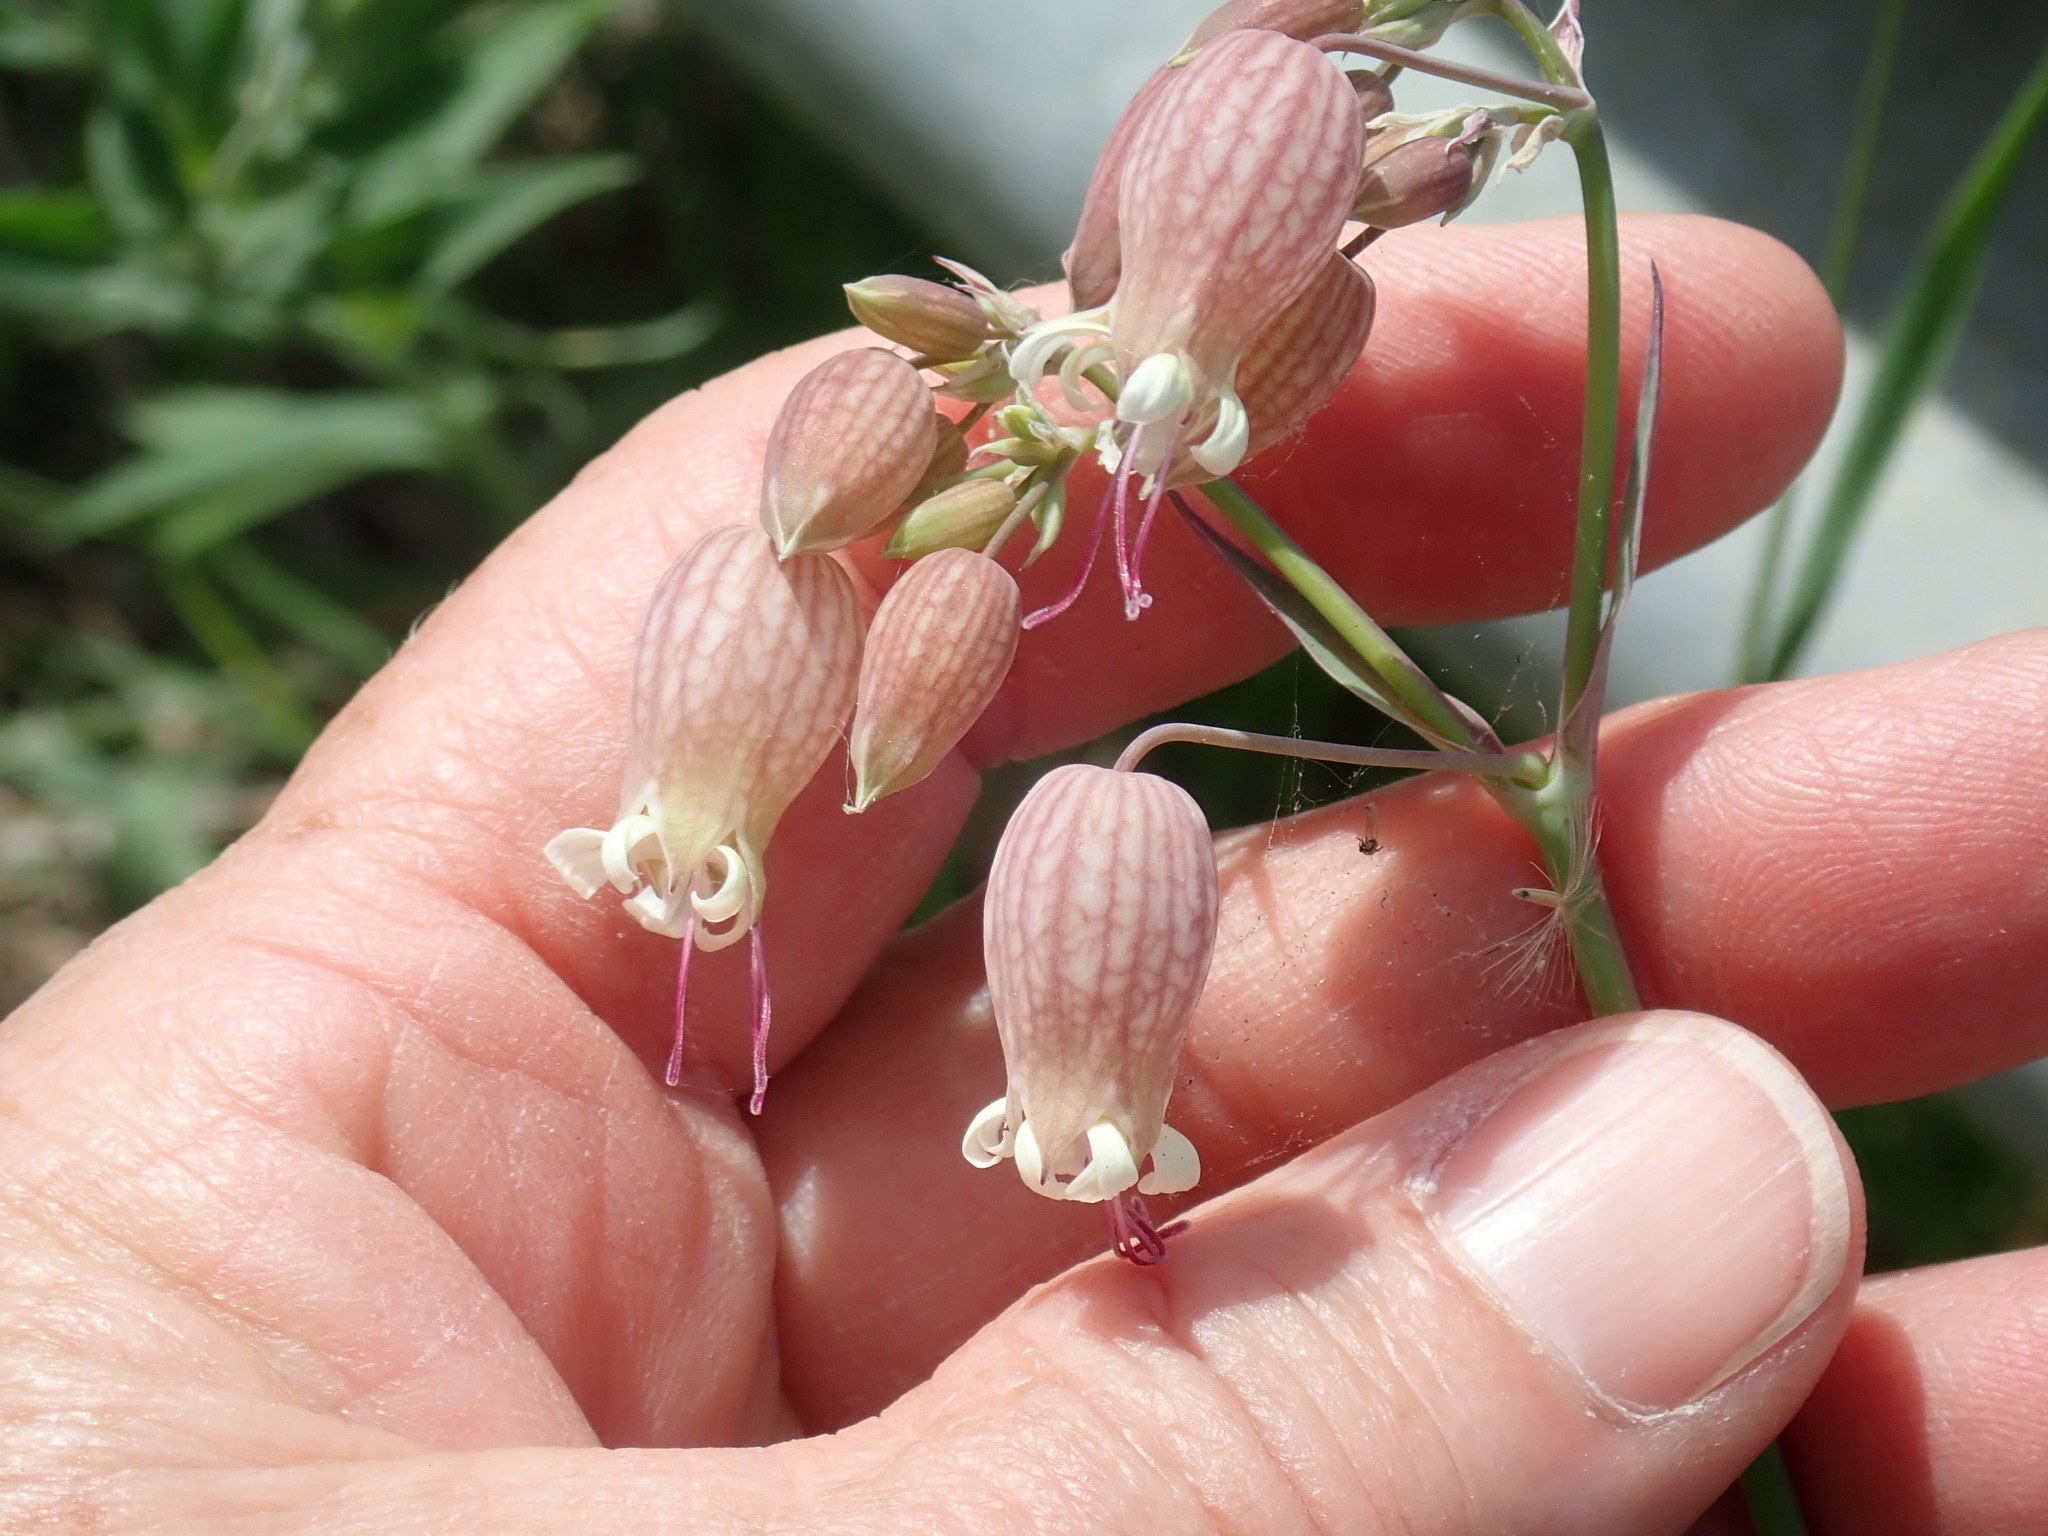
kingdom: Plantae
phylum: Tracheophyta
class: Magnoliopsida
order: Caryophyllales
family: Caryophyllaceae
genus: Silene
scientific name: Silene vulgaris
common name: Bladder campion
